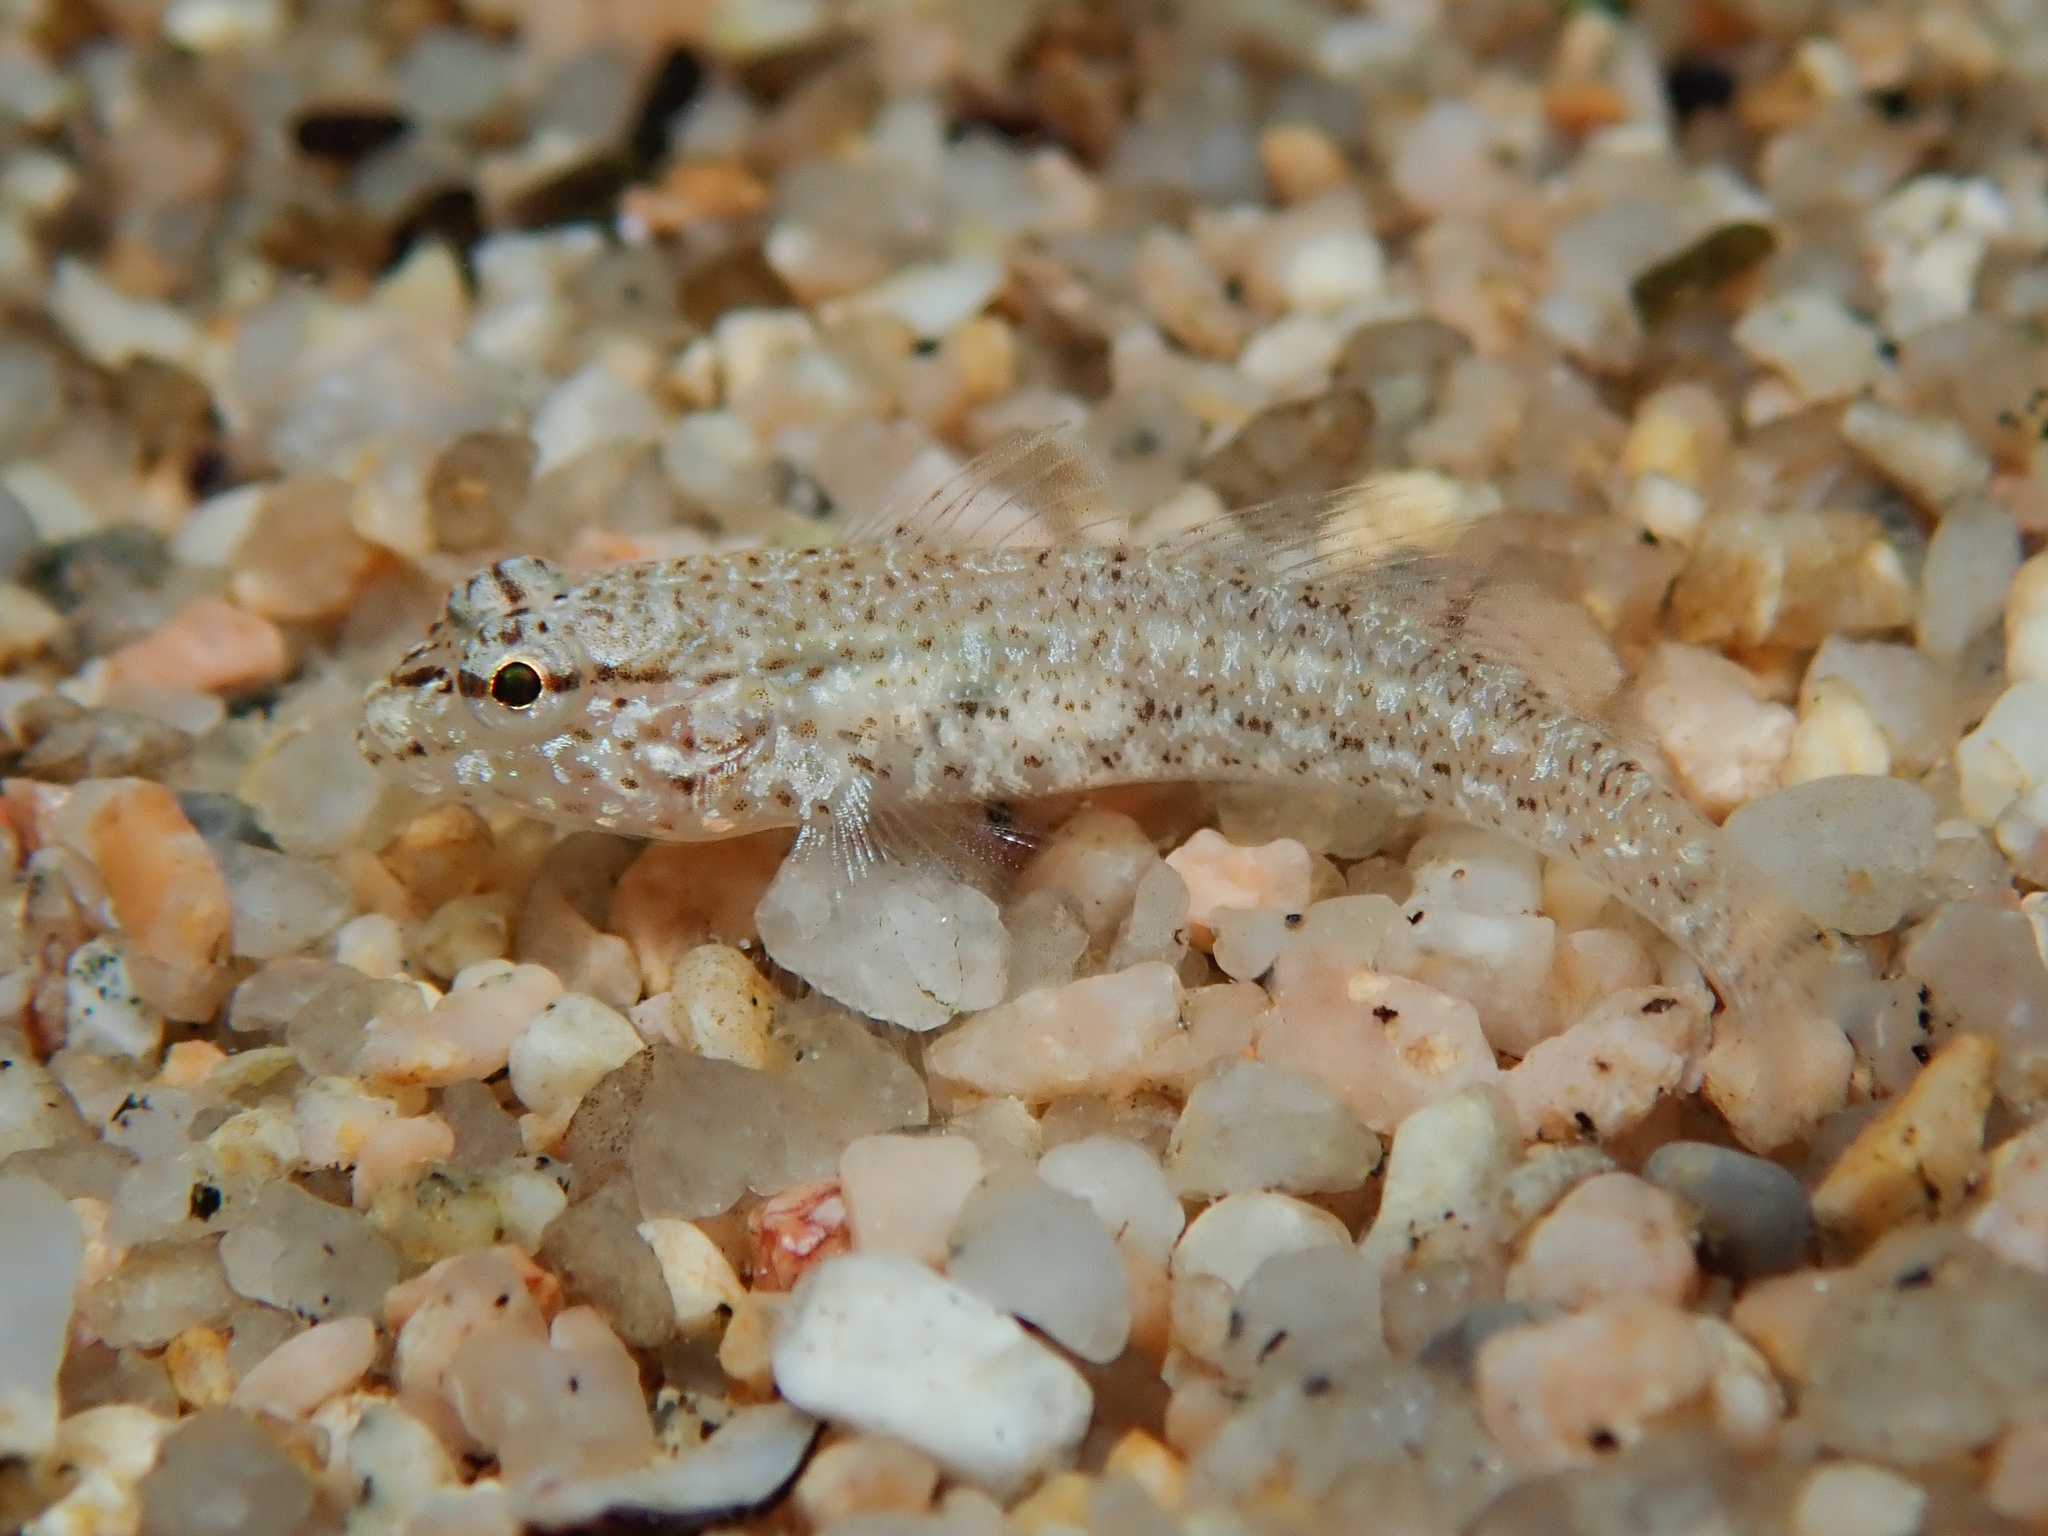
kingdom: Animalia
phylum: Chordata
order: Perciformes
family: Gobiidae
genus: Gobius
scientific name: Gobius incognitus
